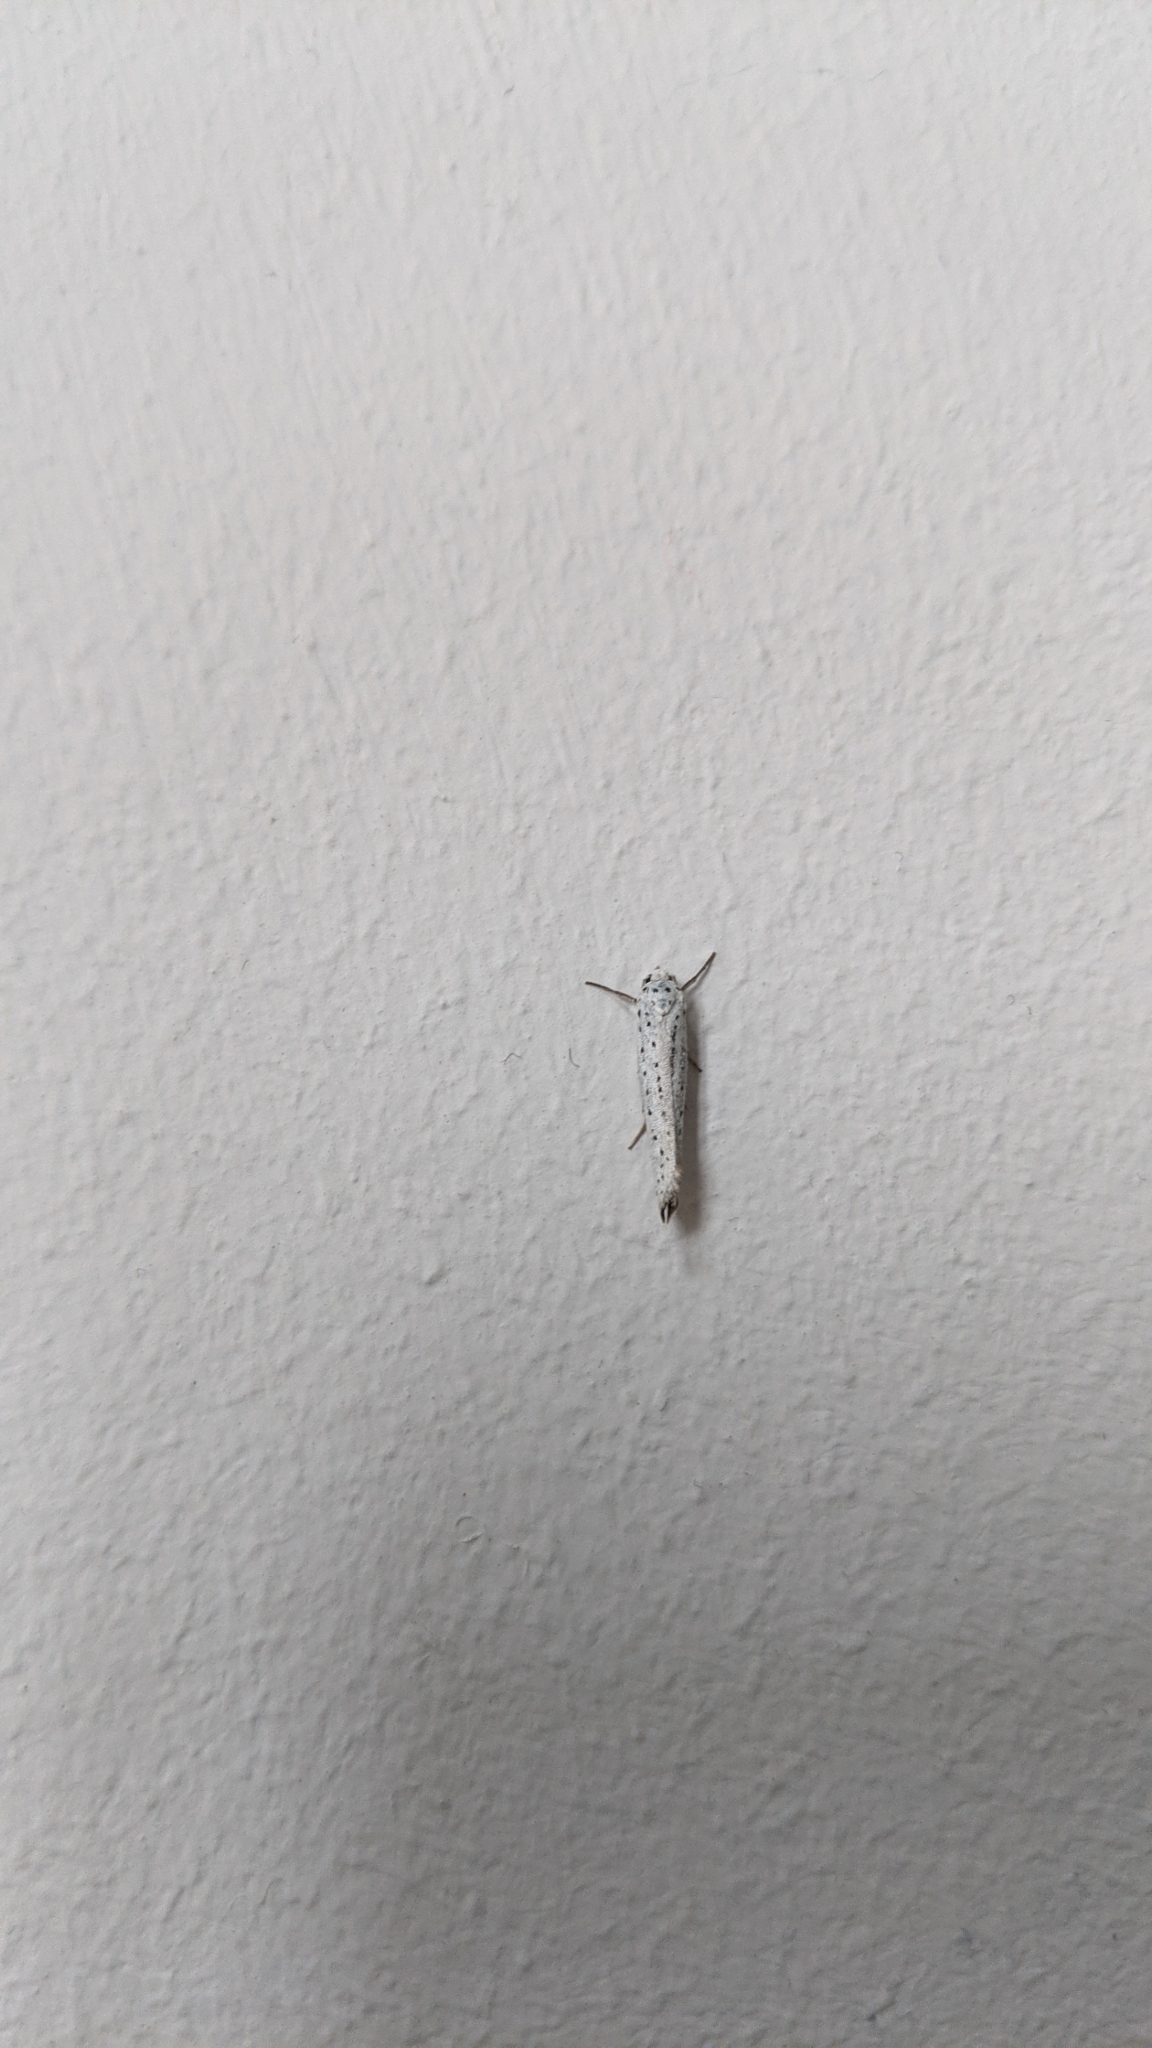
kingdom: Animalia
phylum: Arthropoda
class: Insecta
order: Lepidoptera
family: Yponomeutidae
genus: Yponomeuta
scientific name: Yponomeuta evonymella
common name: Bird-cherry ermine
